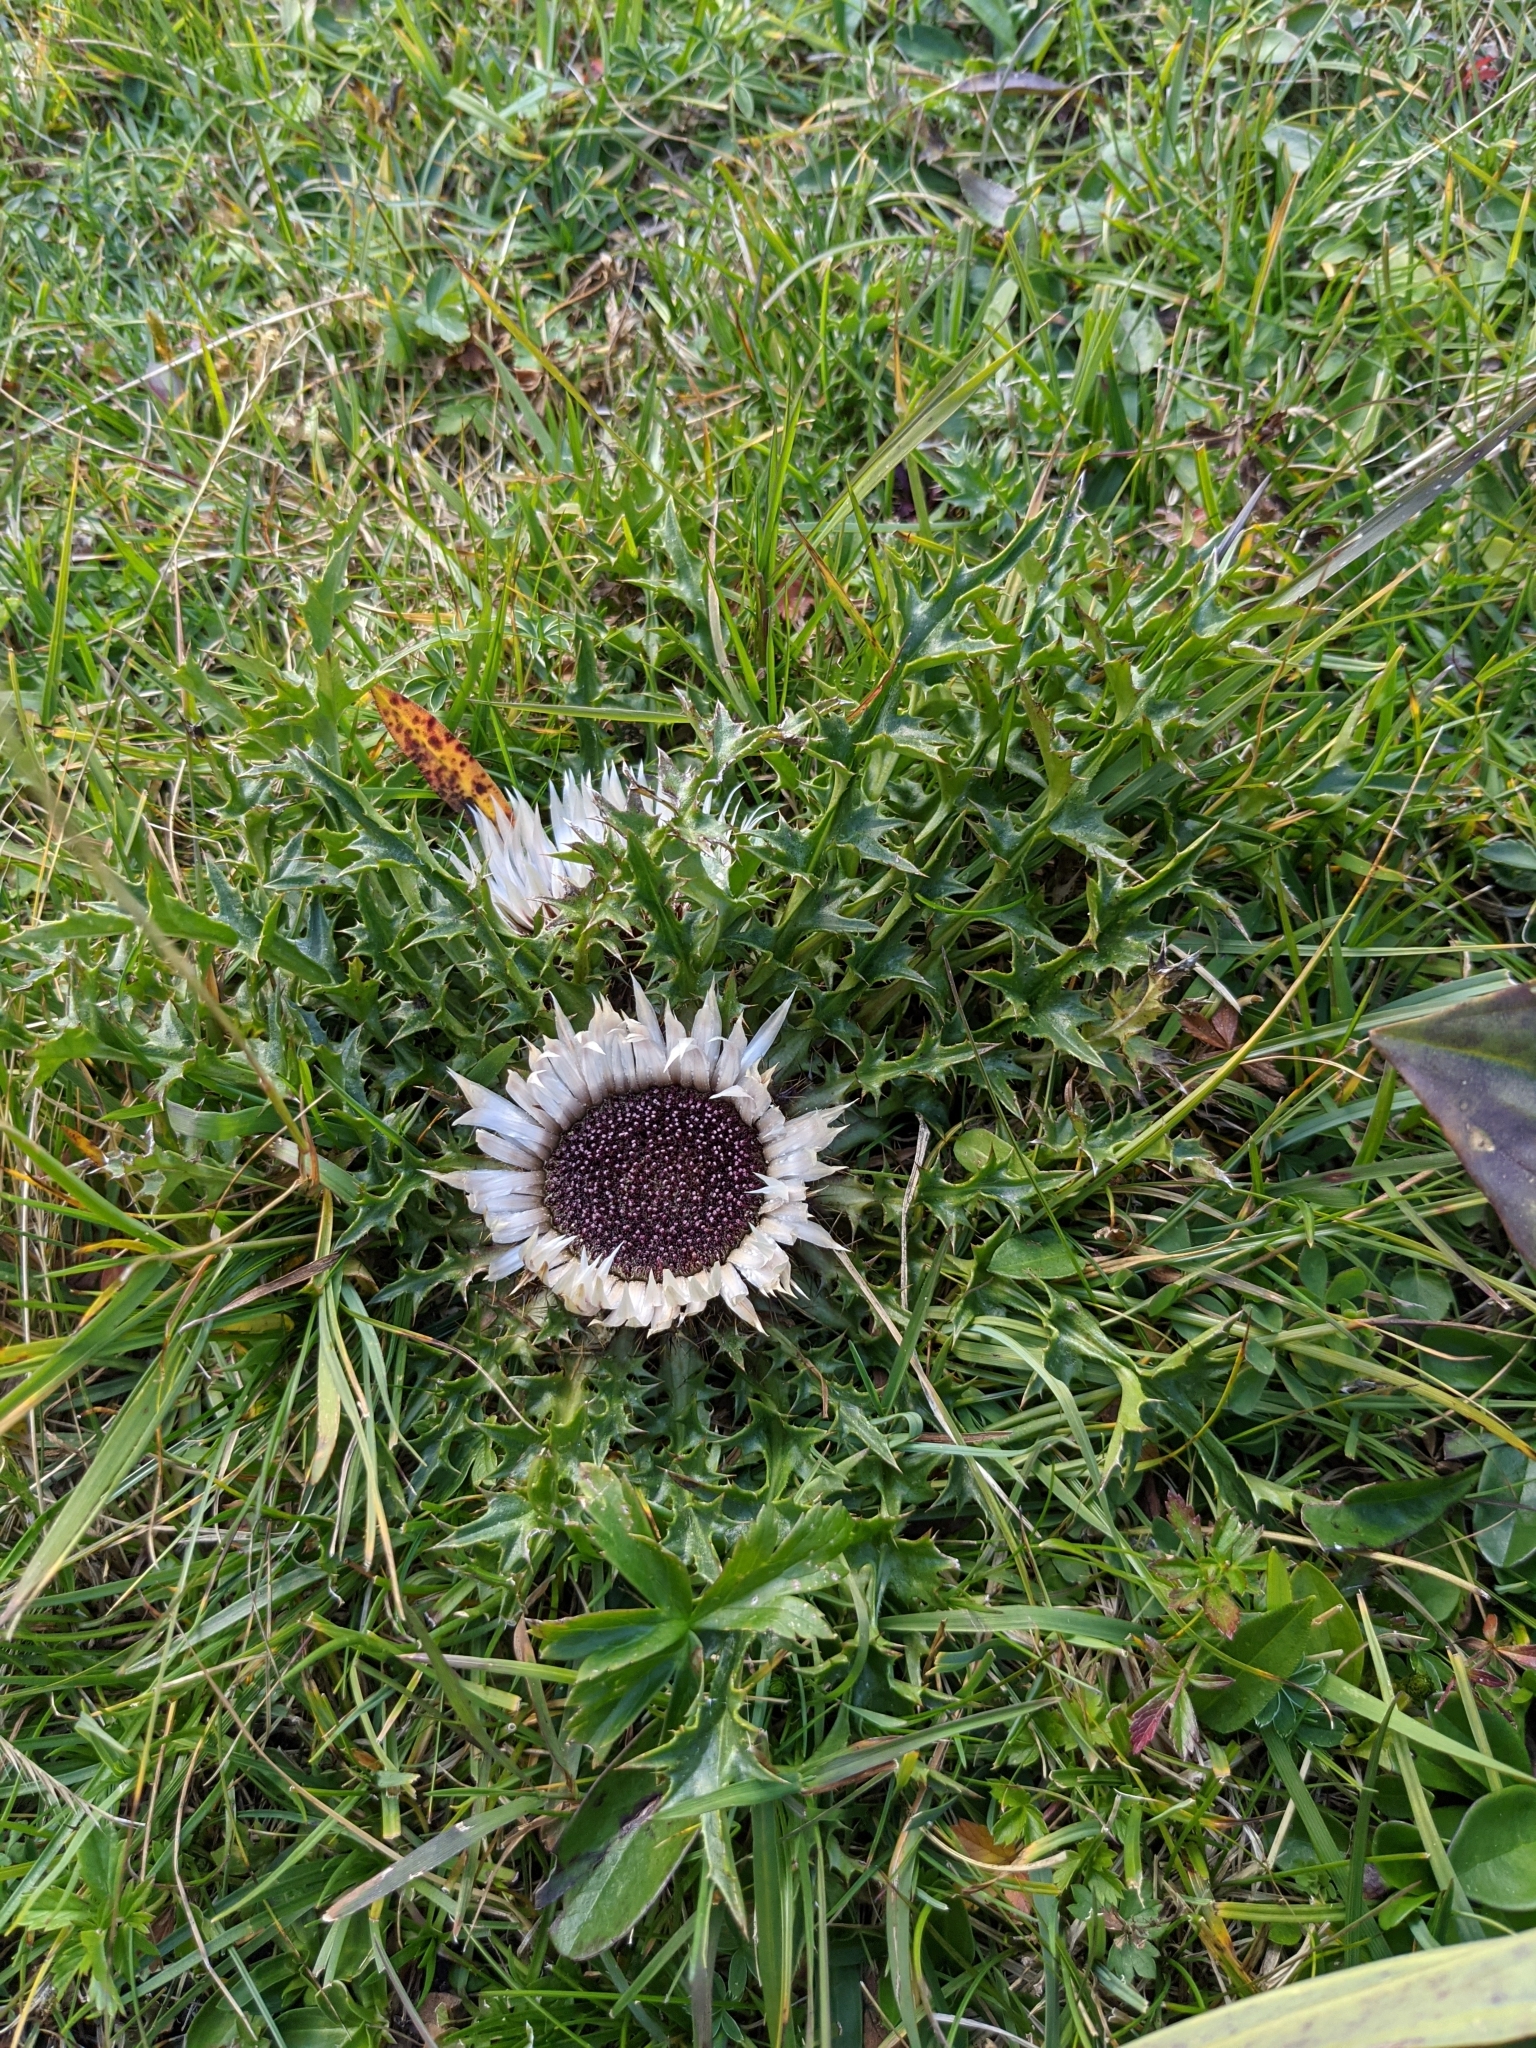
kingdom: Plantae
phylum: Tracheophyta
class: Magnoliopsida
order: Asterales
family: Asteraceae
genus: Carlina
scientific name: Carlina acaulis
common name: Stemless carline thistle
